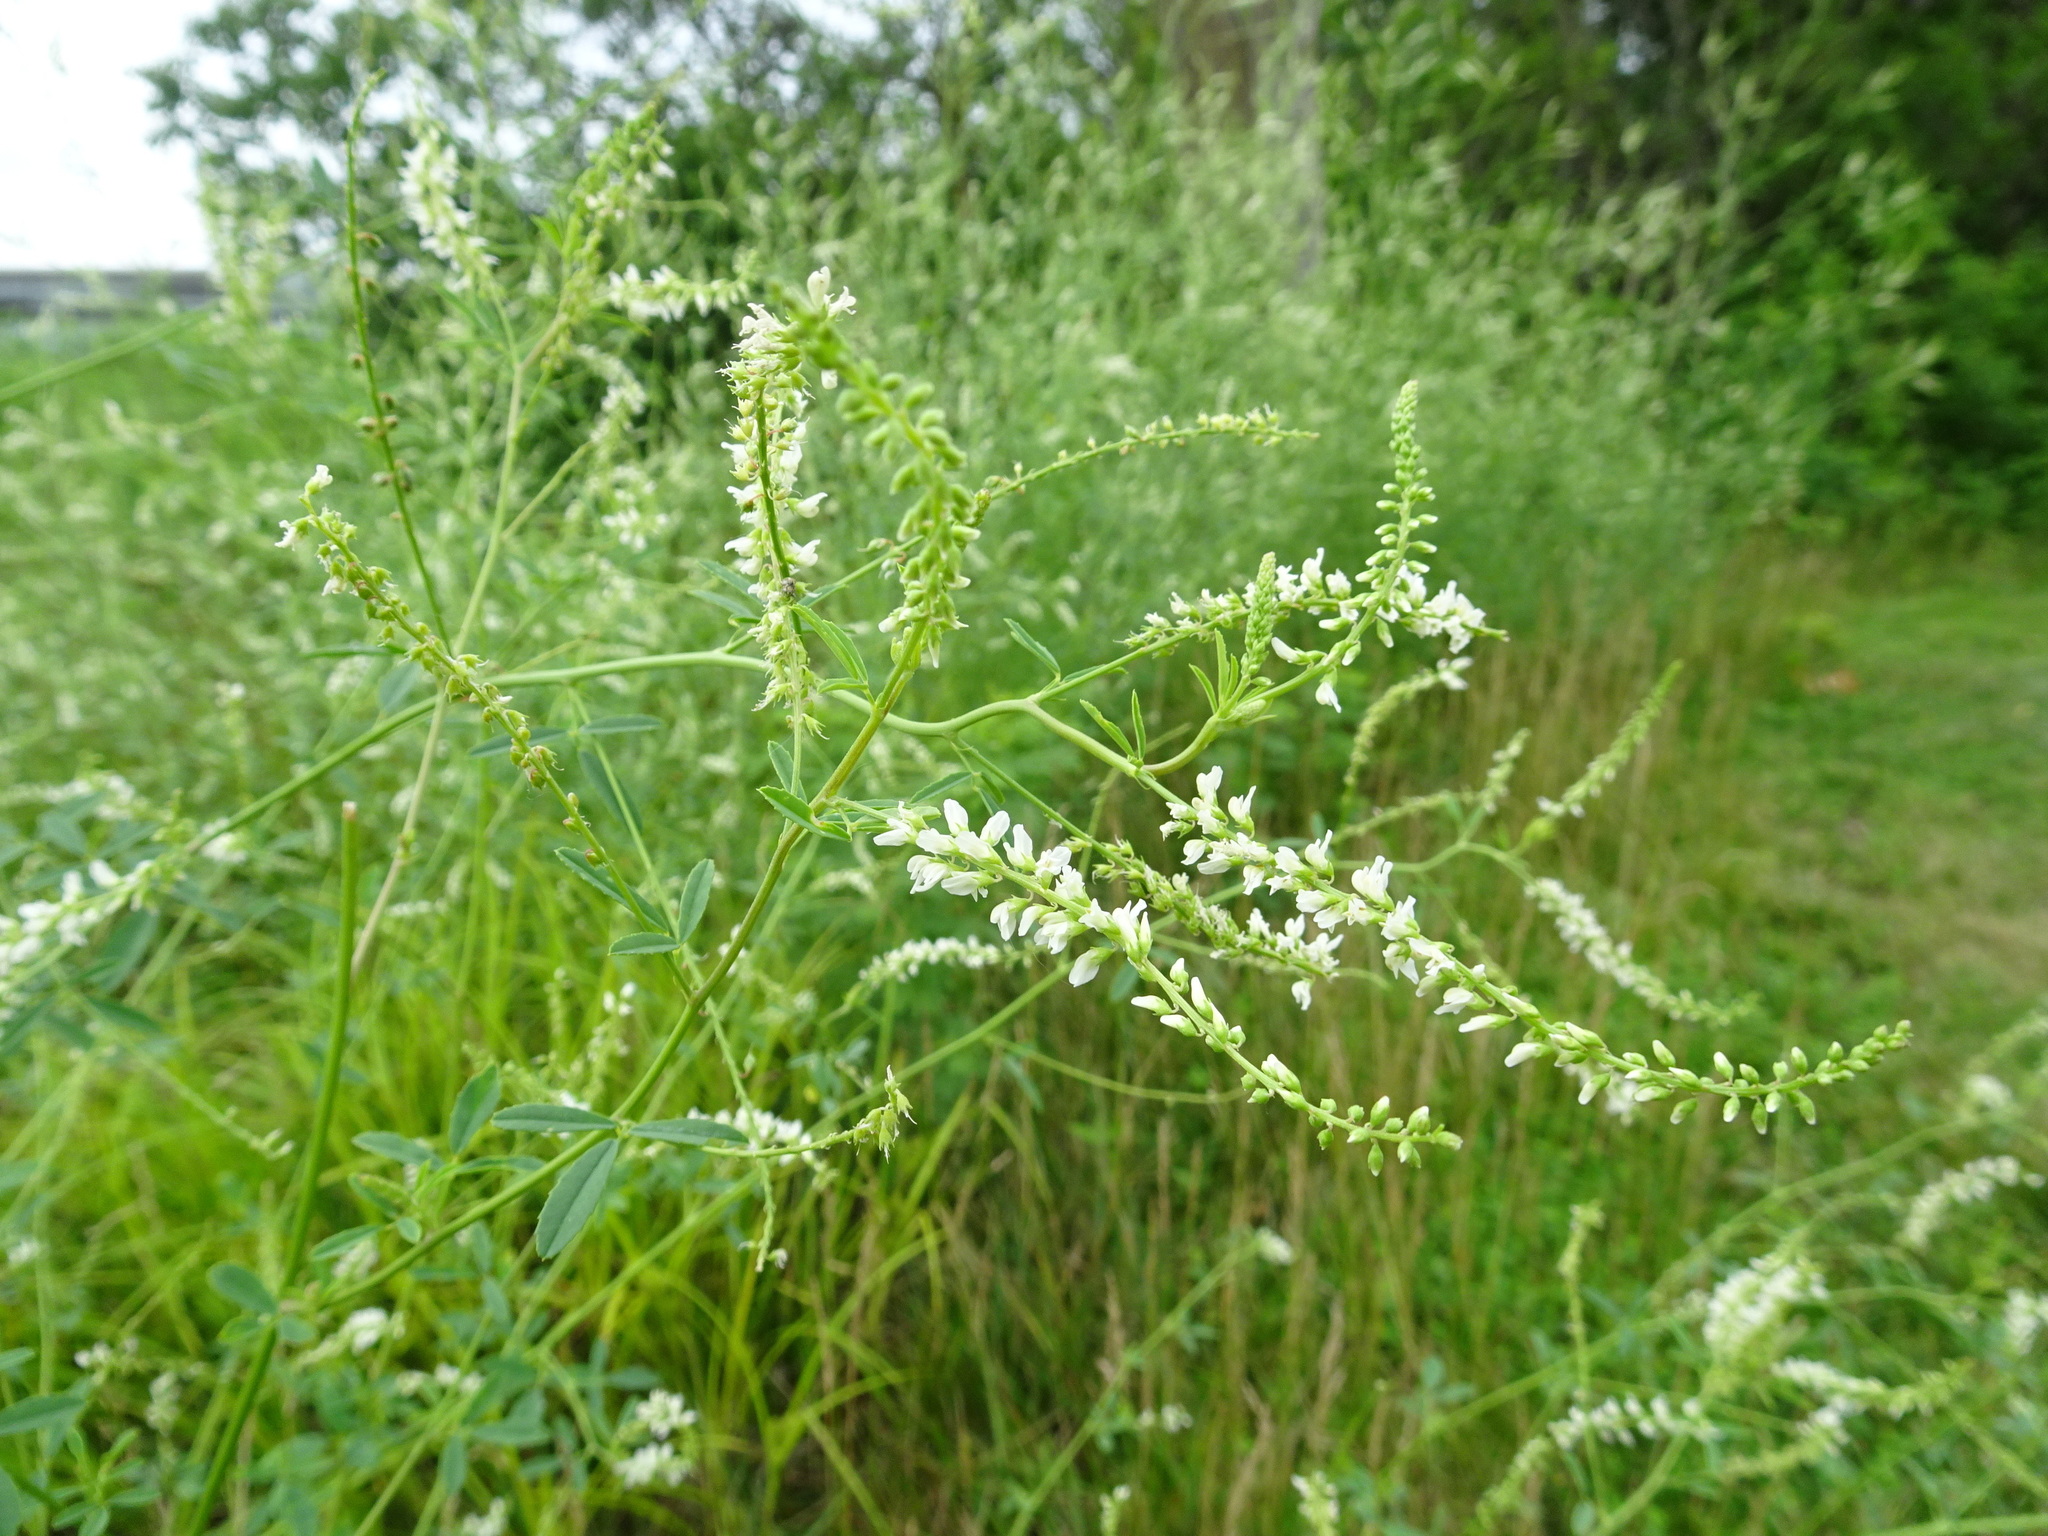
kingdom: Plantae
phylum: Tracheophyta
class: Magnoliopsida
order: Fabales
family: Fabaceae
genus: Melilotus
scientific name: Melilotus albus
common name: White melilot
